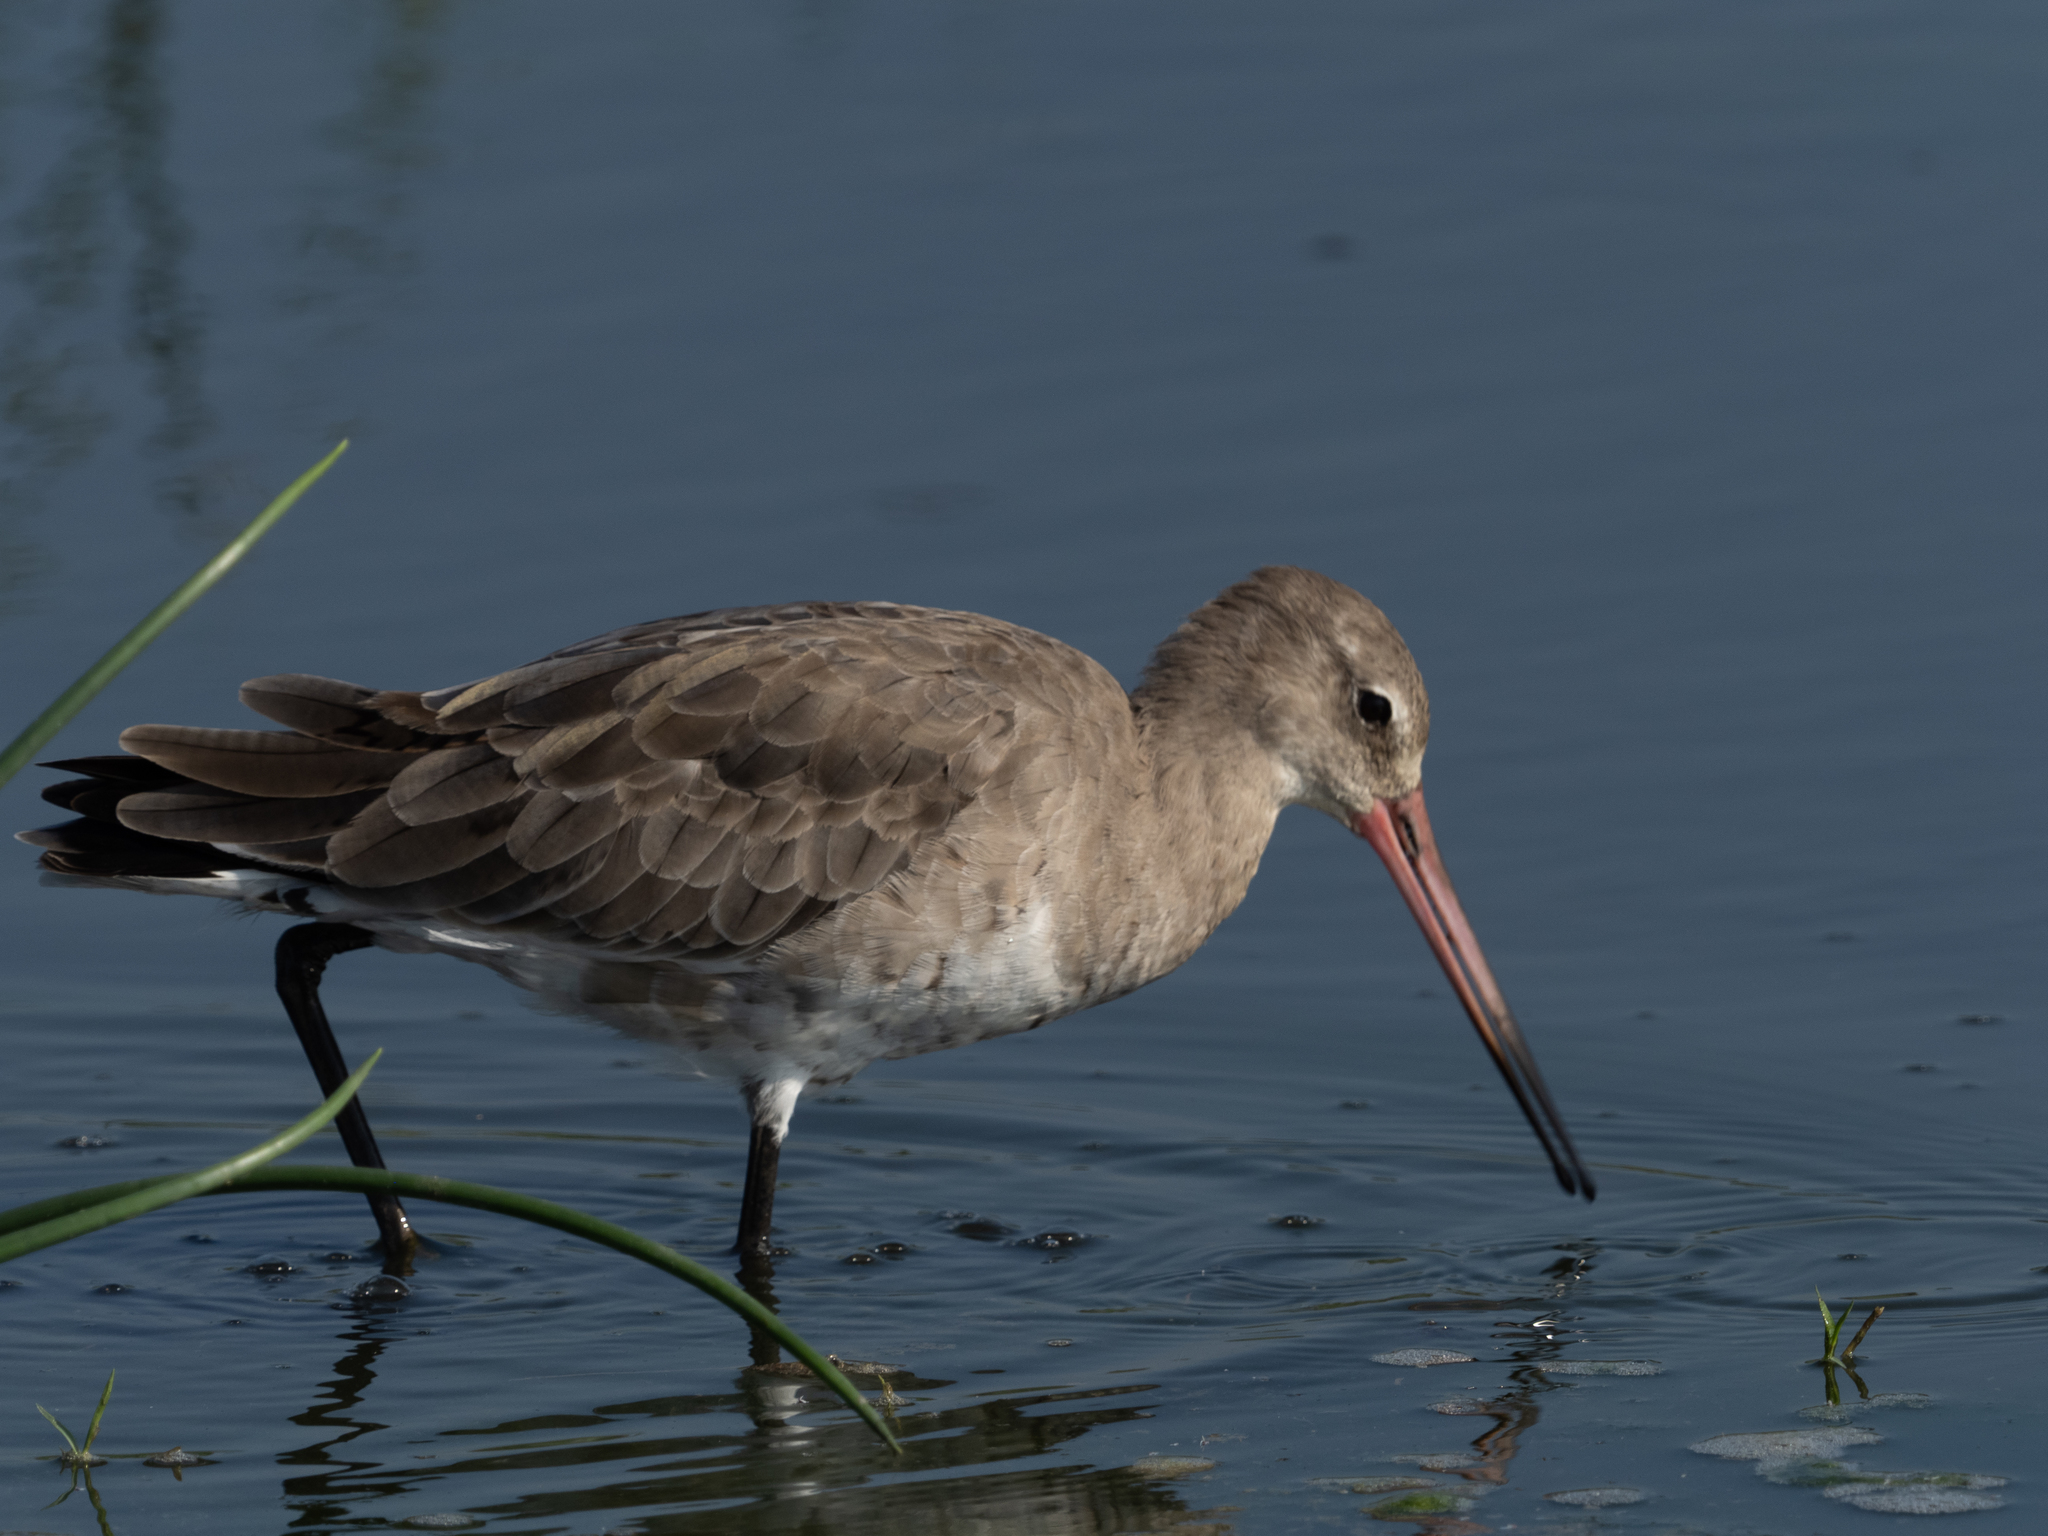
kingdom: Animalia
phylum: Chordata
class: Aves
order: Charadriiformes
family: Scolopacidae
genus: Limosa
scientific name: Limosa limosa
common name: Black-tailed godwit
